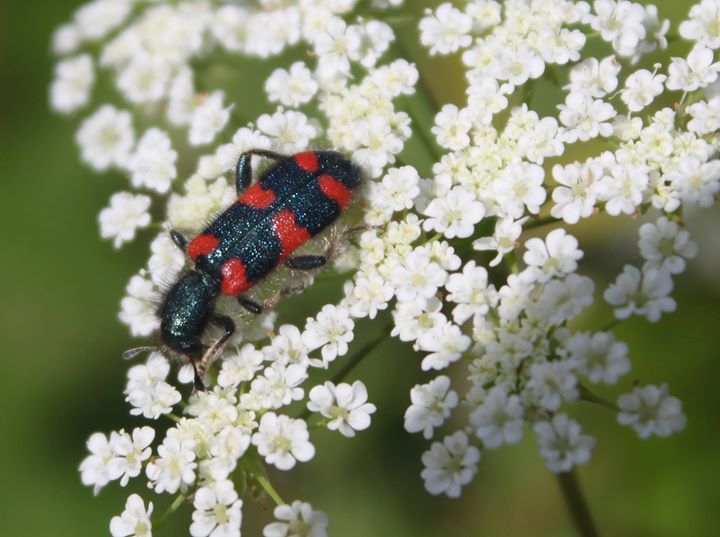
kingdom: Animalia
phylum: Arthropoda
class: Insecta
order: Coleoptera
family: Cleridae
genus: Trichodes
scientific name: Trichodes affinis
